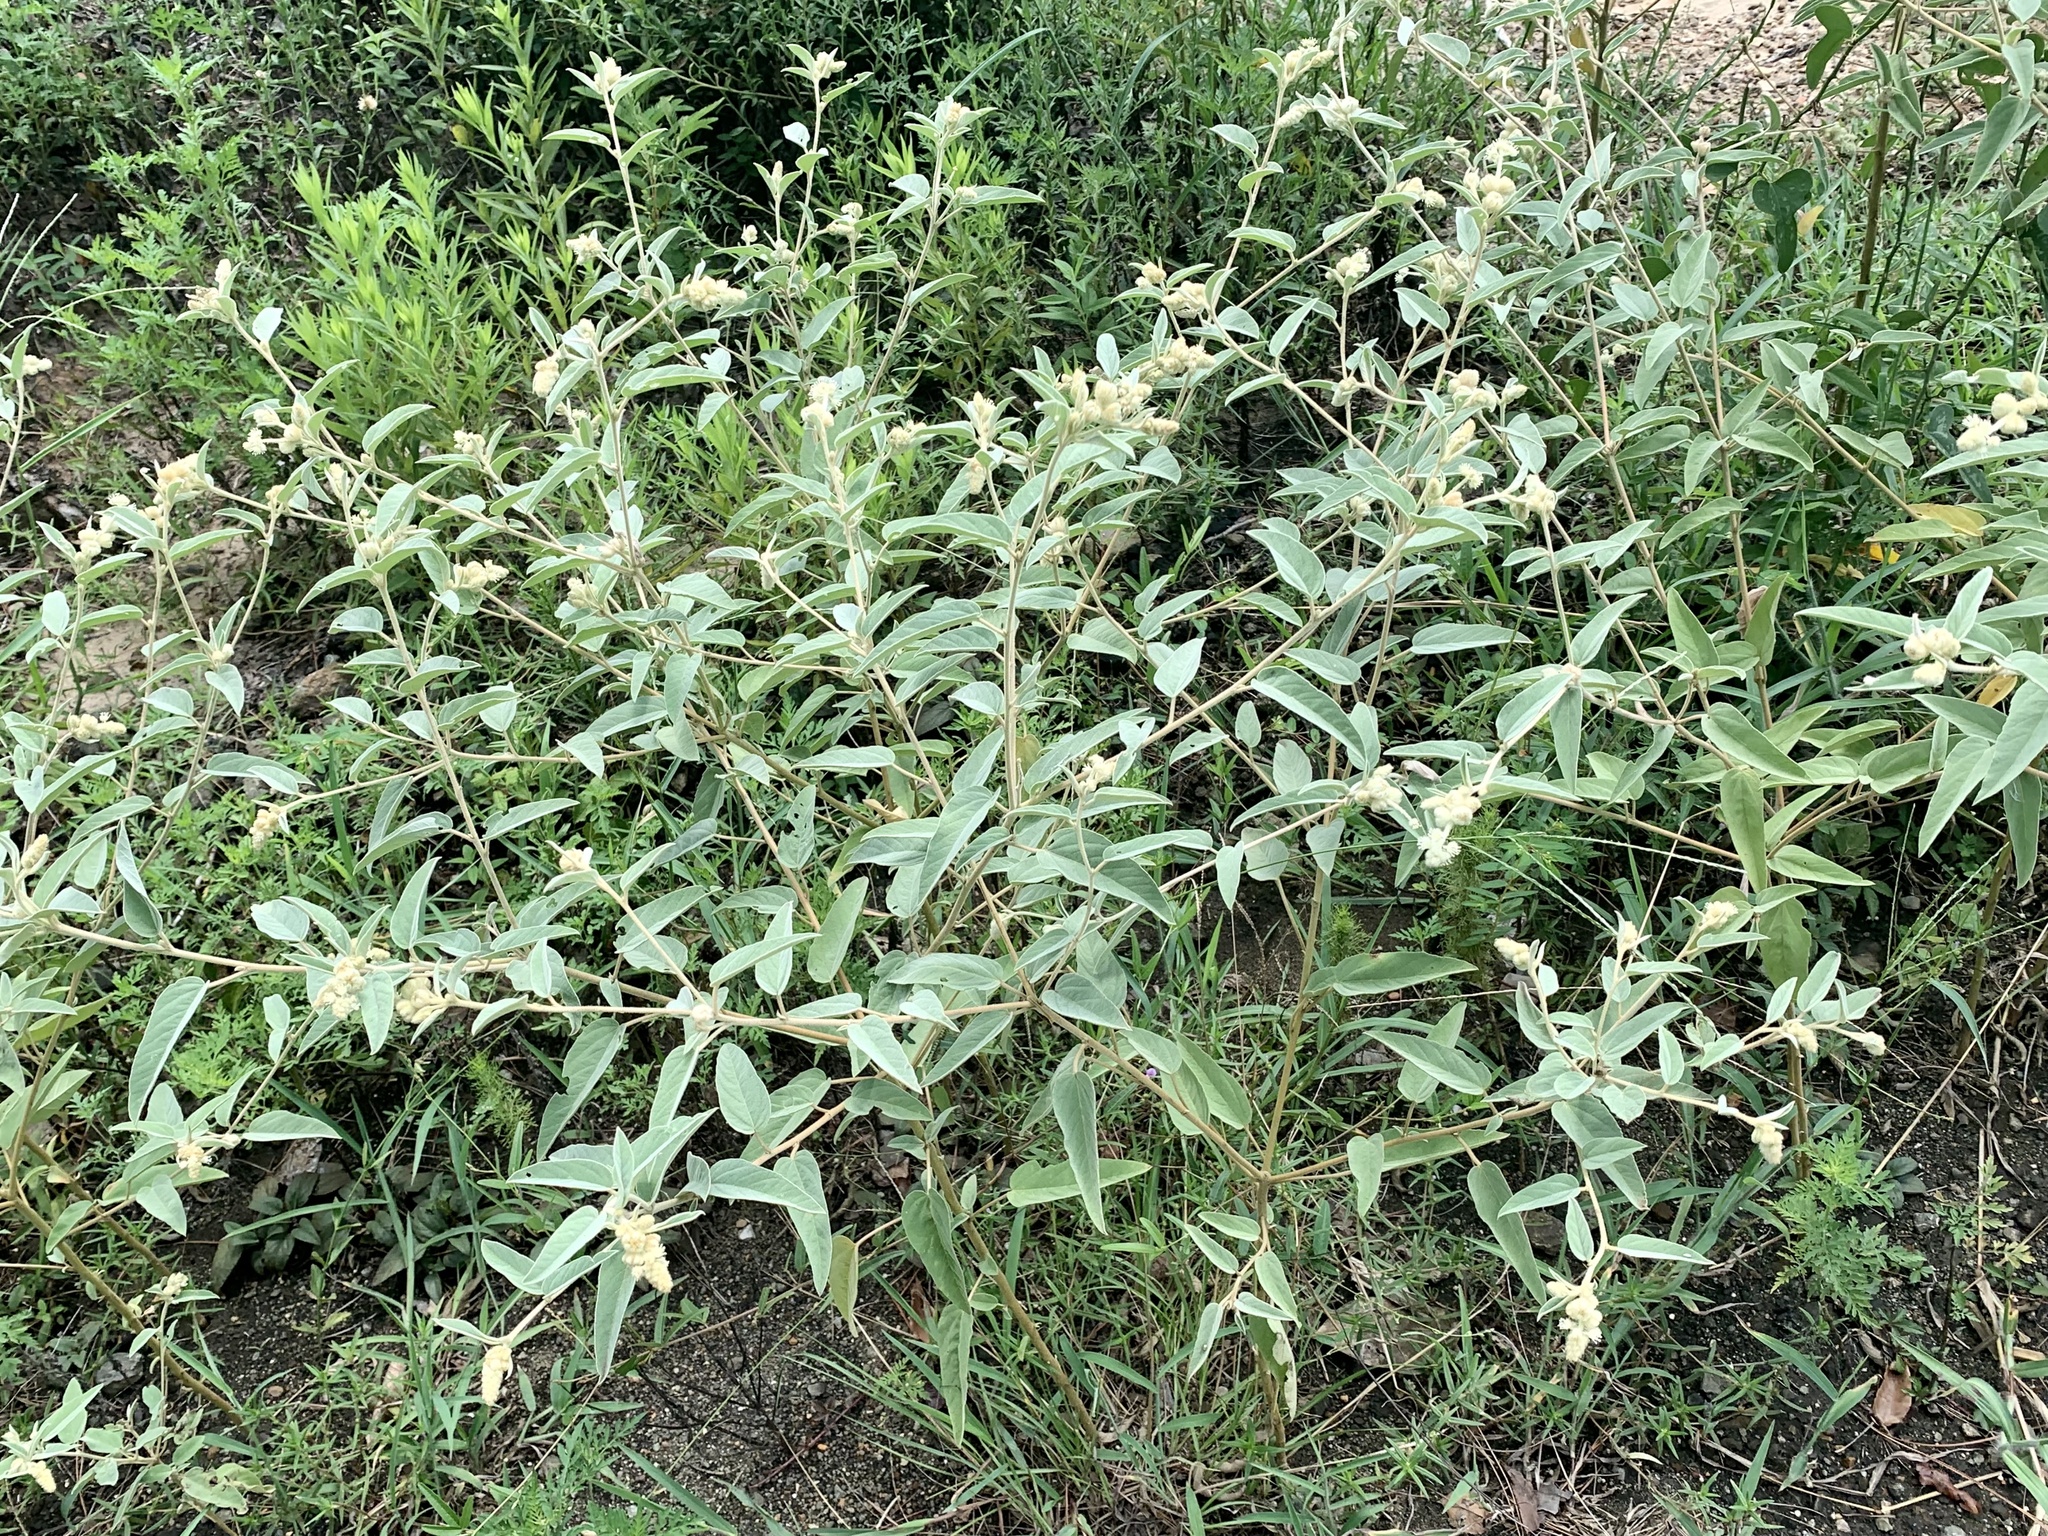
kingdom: Plantae
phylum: Tracheophyta
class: Magnoliopsida
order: Malpighiales
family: Euphorbiaceae
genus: Croton
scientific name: Croton lindheimeri
